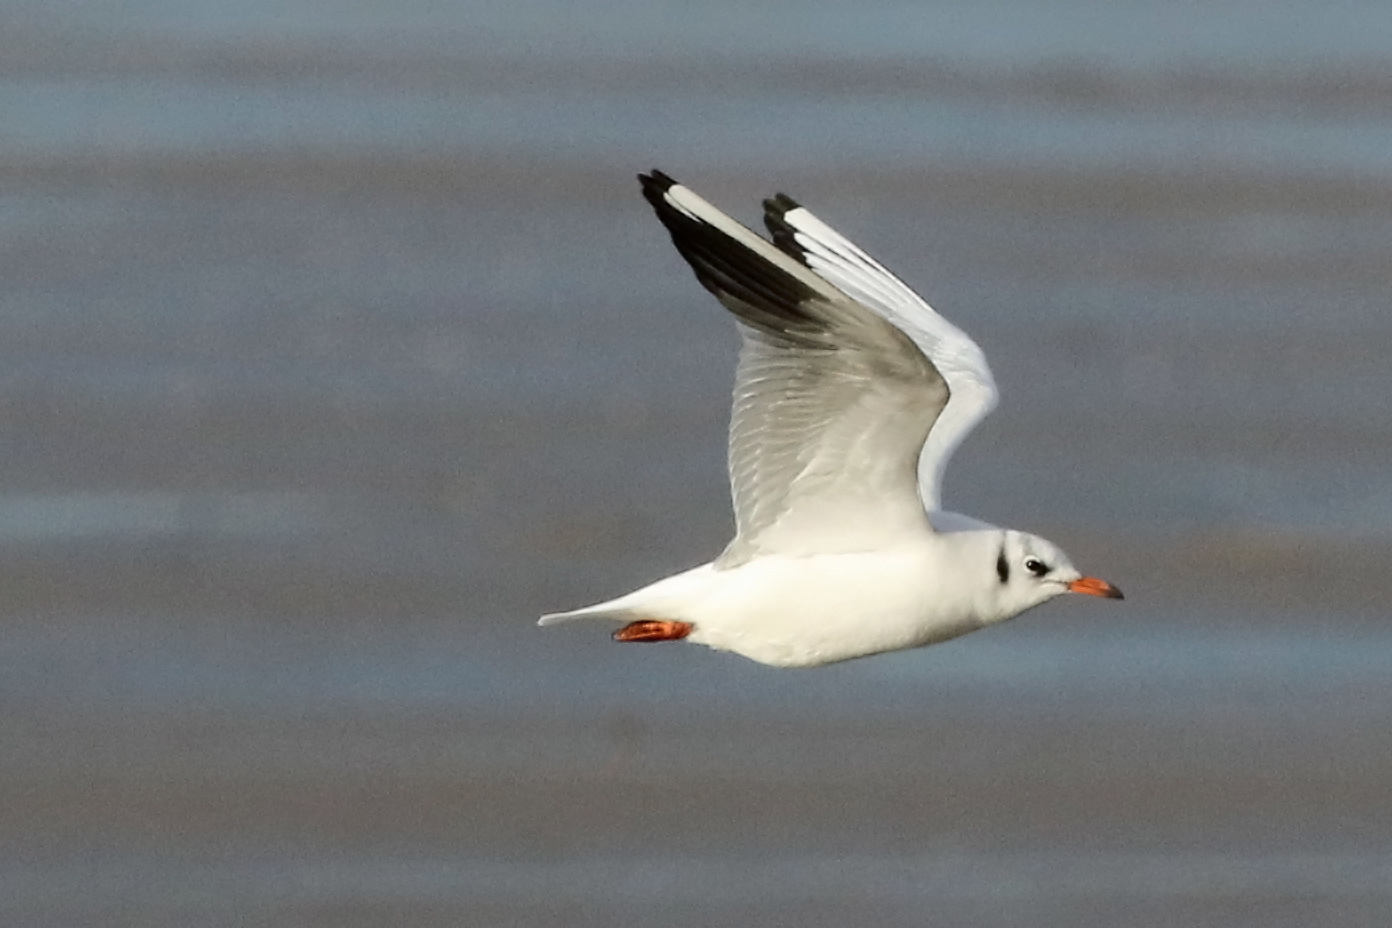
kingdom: Animalia
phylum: Chordata
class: Aves
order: Charadriiformes
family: Laridae
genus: Chroicocephalus
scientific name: Chroicocephalus ridibundus
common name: Black-headed gull
